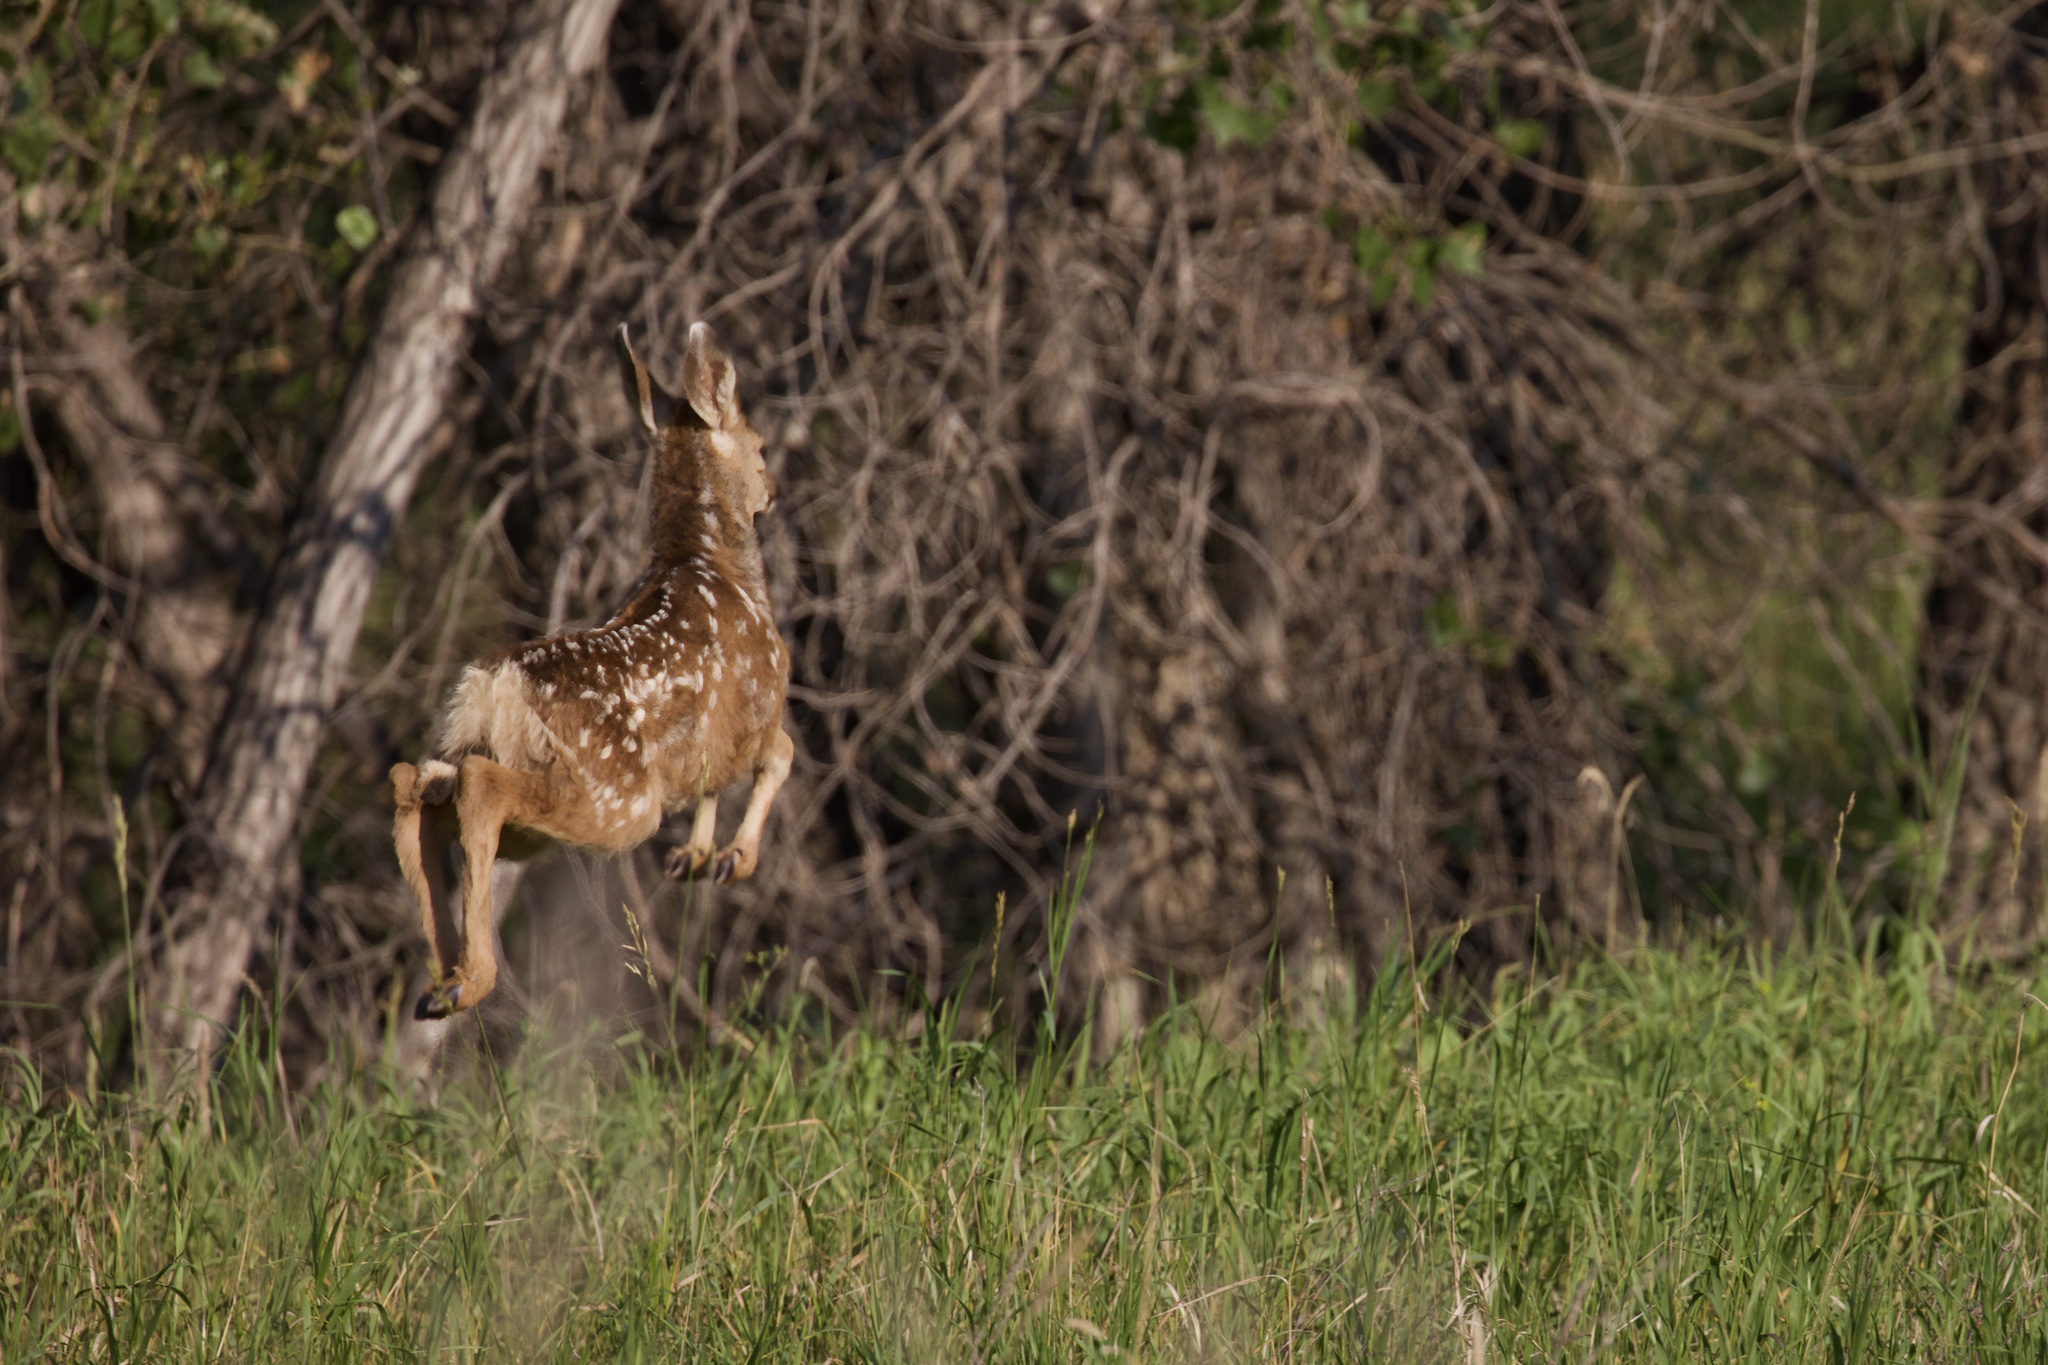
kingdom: Animalia
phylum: Chordata
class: Mammalia
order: Artiodactyla
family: Cervidae
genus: Odocoileus
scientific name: Odocoileus hemionus
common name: Mule deer
